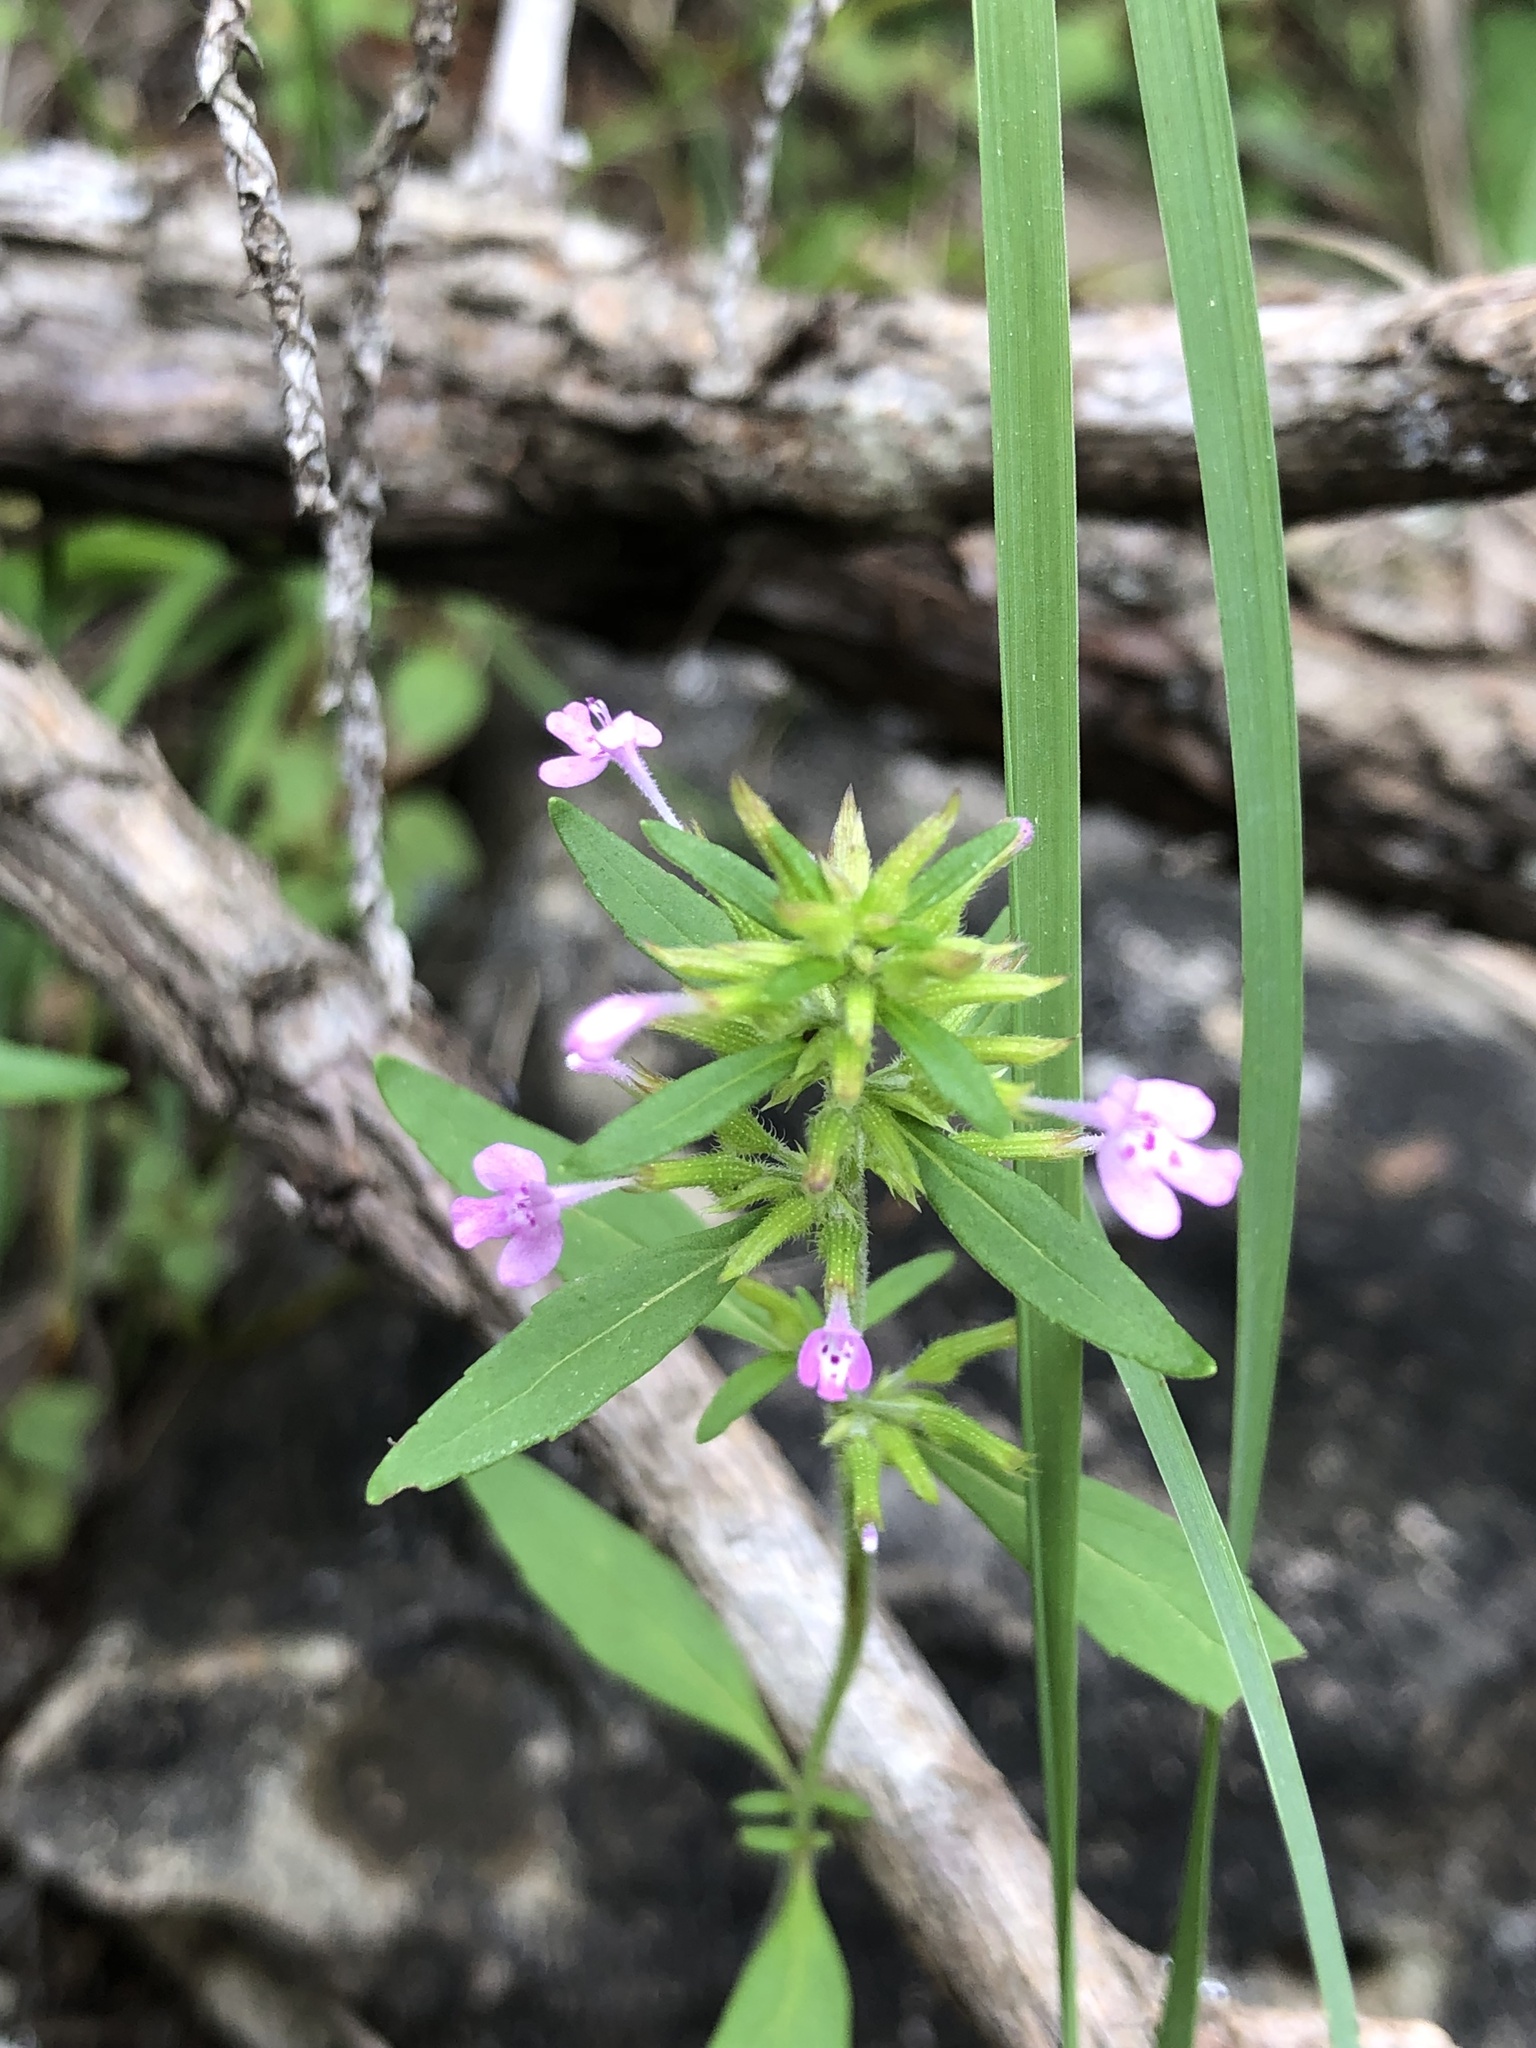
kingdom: Plantae
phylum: Tracheophyta
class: Magnoliopsida
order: Lamiales
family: Lamiaceae
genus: Hedeoma
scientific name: Hedeoma acinoides
